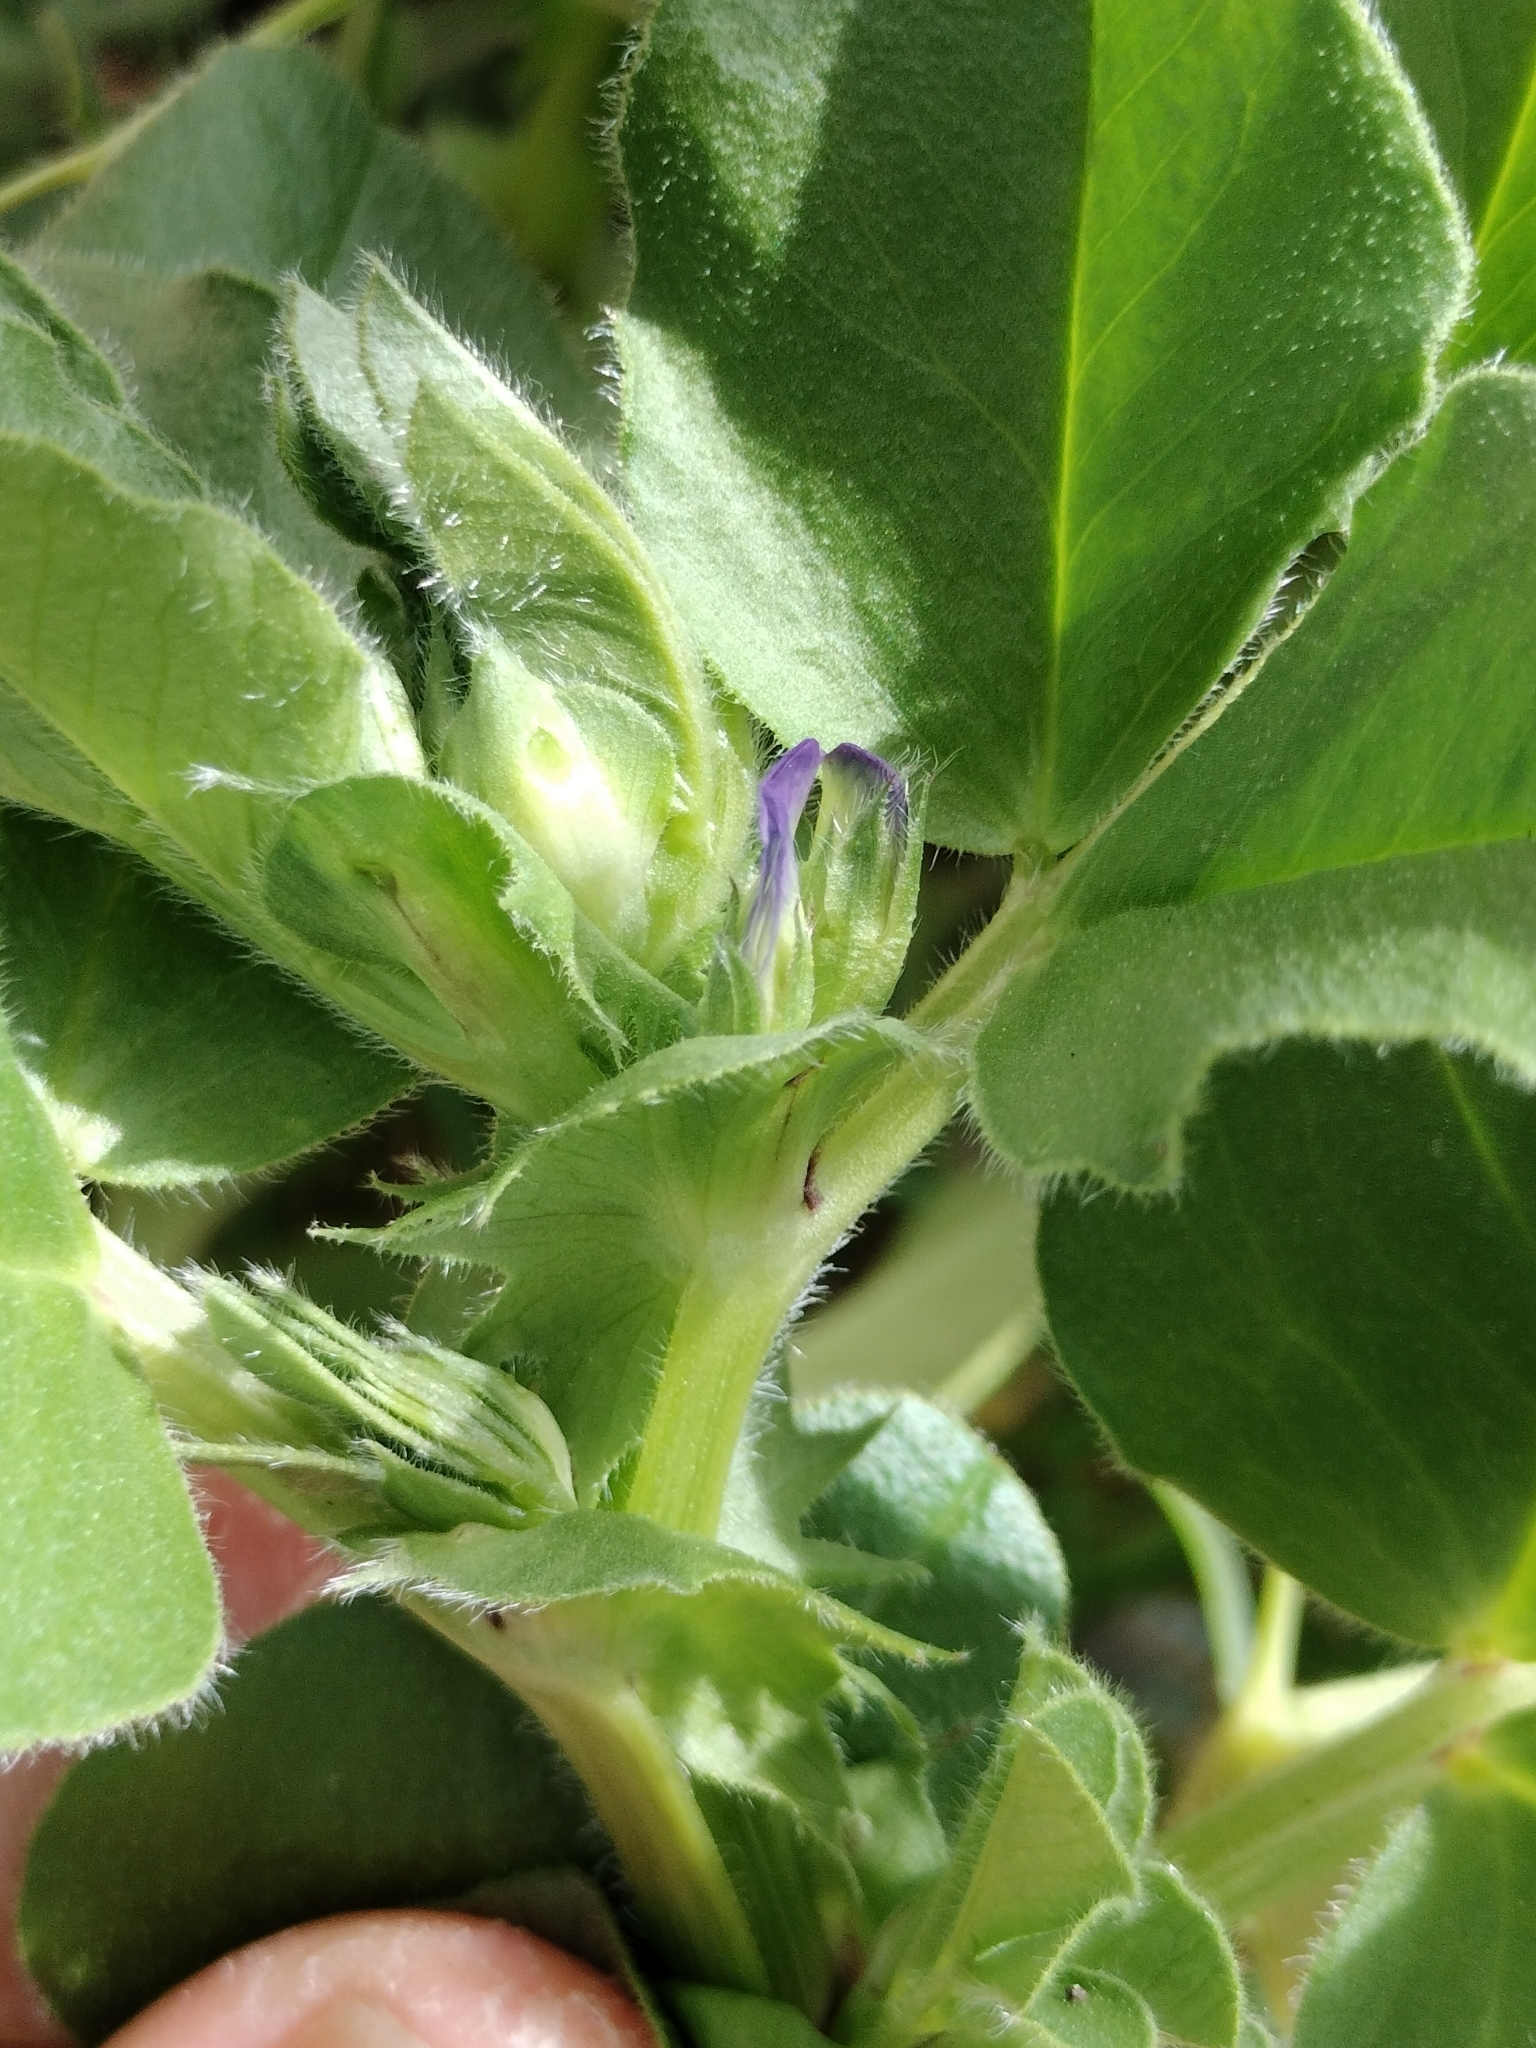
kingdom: Plantae
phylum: Tracheophyta
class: Magnoliopsida
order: Fabales
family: Fabaceae
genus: Vicia
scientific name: Vicia faba
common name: Broad bean
